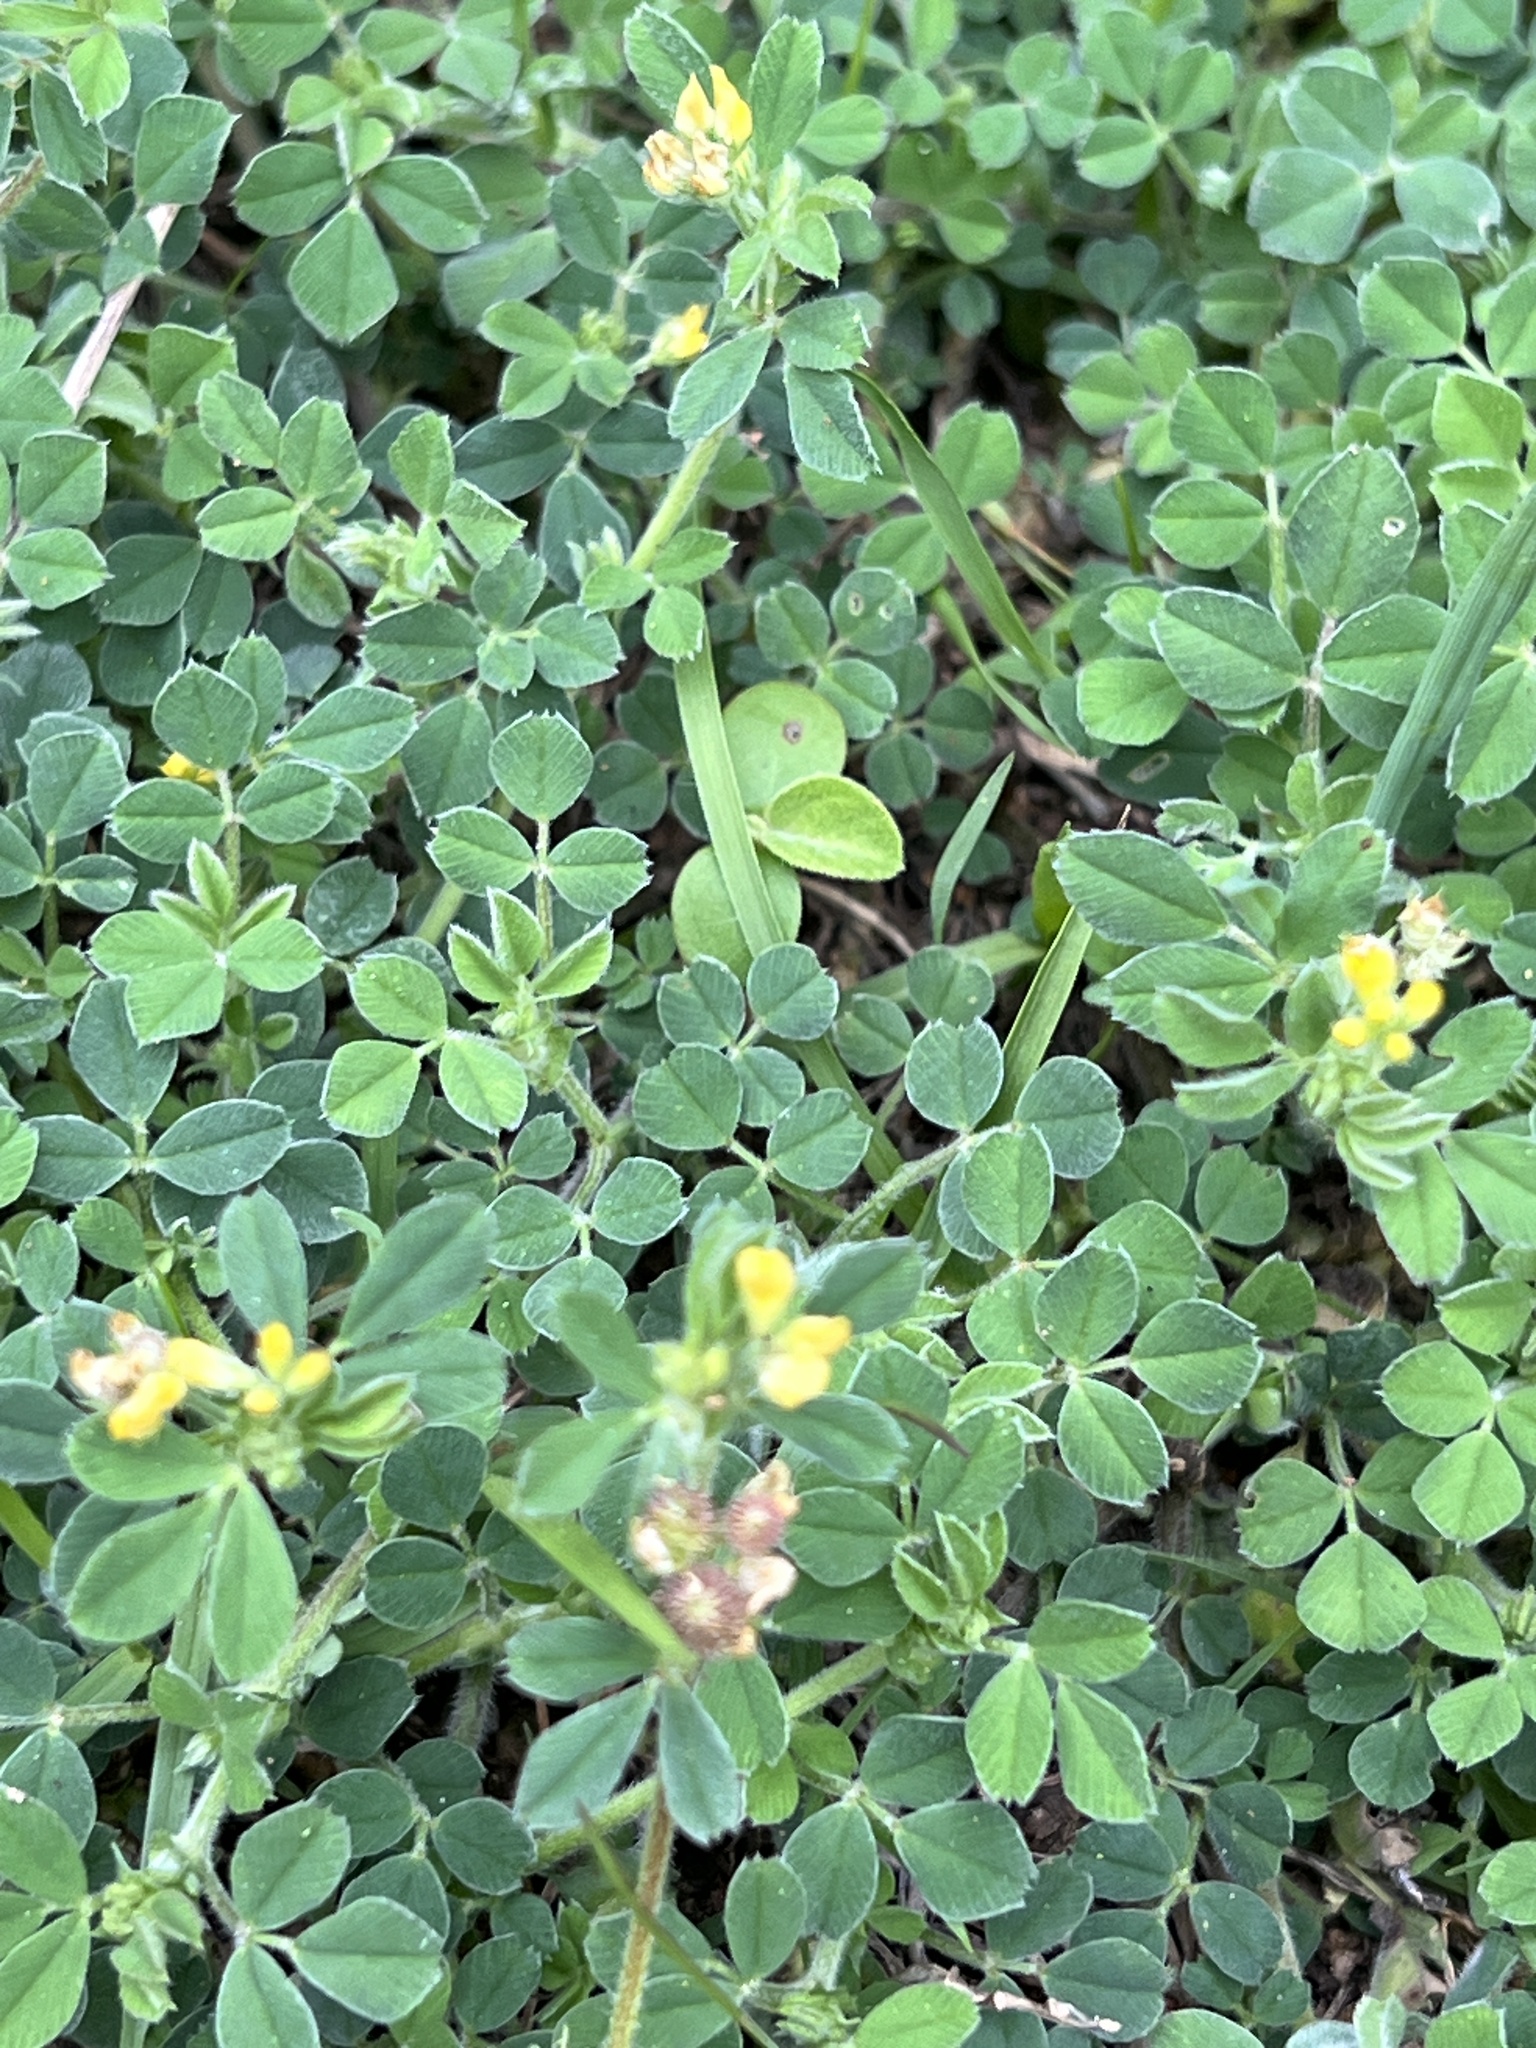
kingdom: Plantae
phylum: Tracheophyta
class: Magnoliopsida
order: Fabales
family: Fabaceae
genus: Medicago
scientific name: Medicago minima
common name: Little bur-clover
